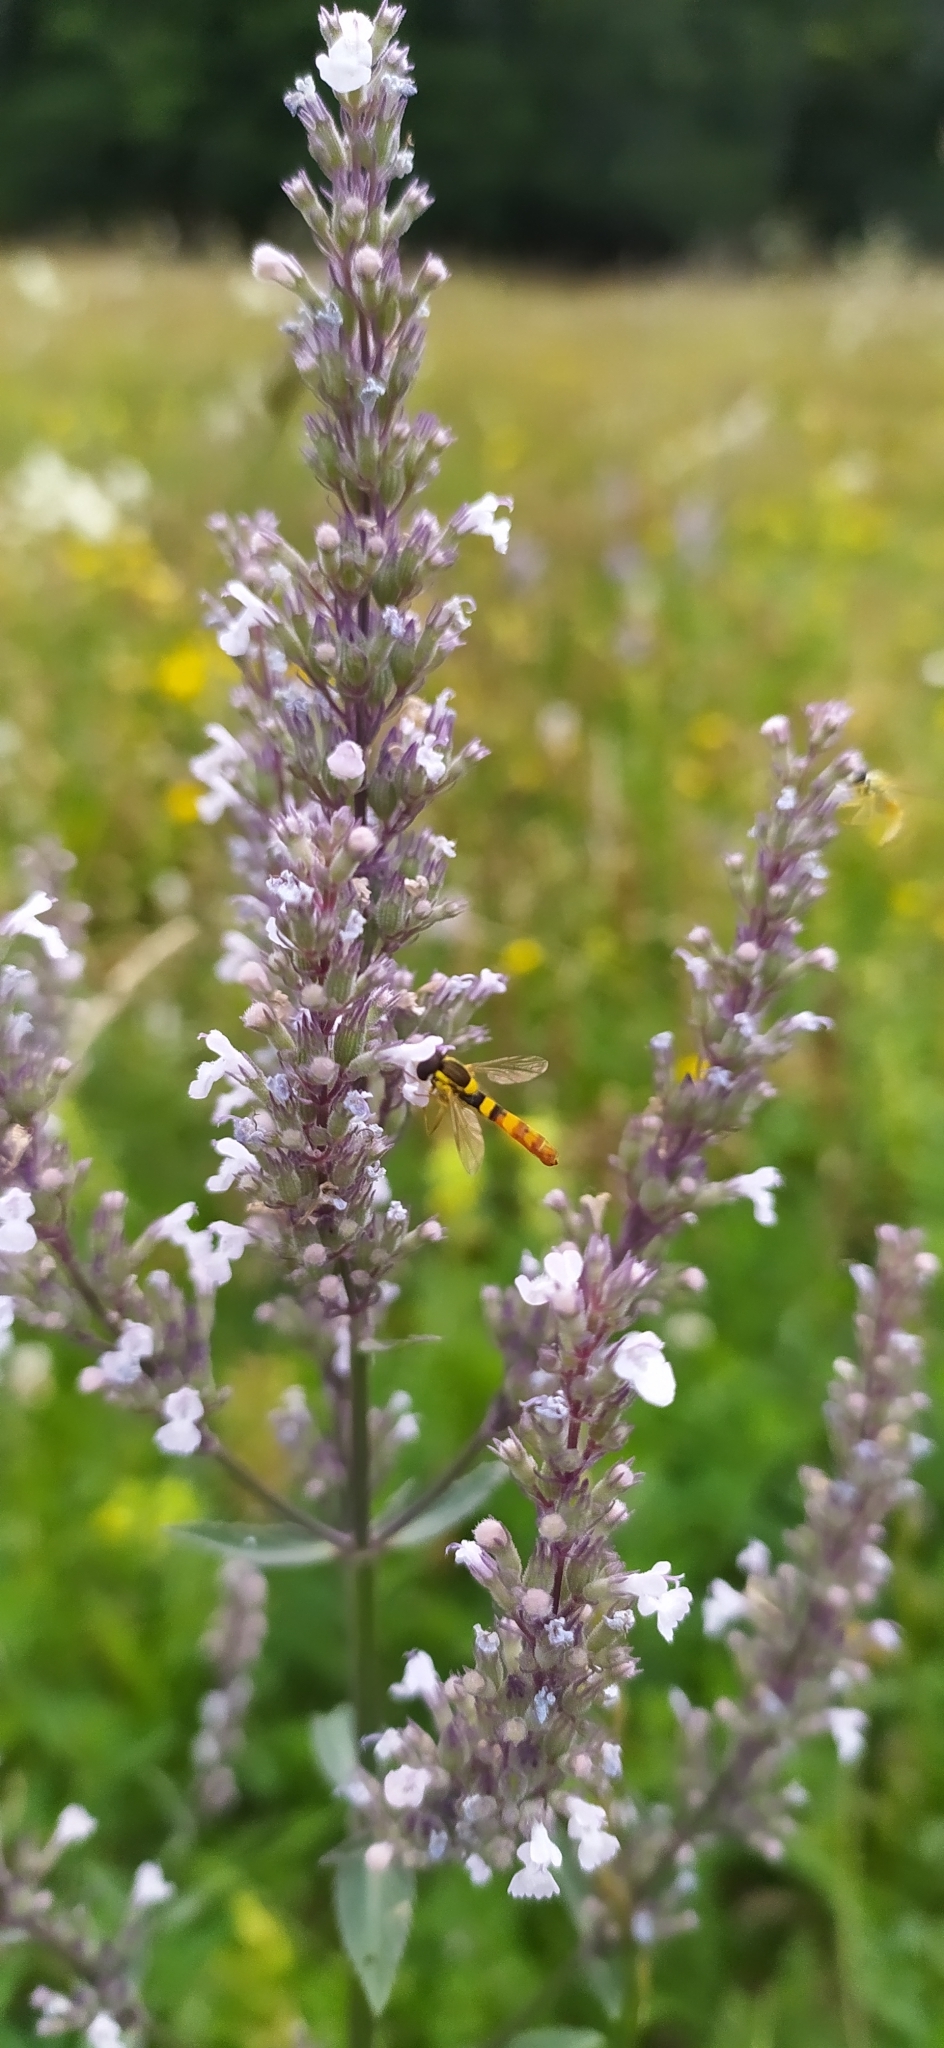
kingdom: Plantae
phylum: Tracheophyta
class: Magnoliopsida
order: Lamiales
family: Lamiaceae
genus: Nepeta
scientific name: Nepeta nuda
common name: Hairless catmint
